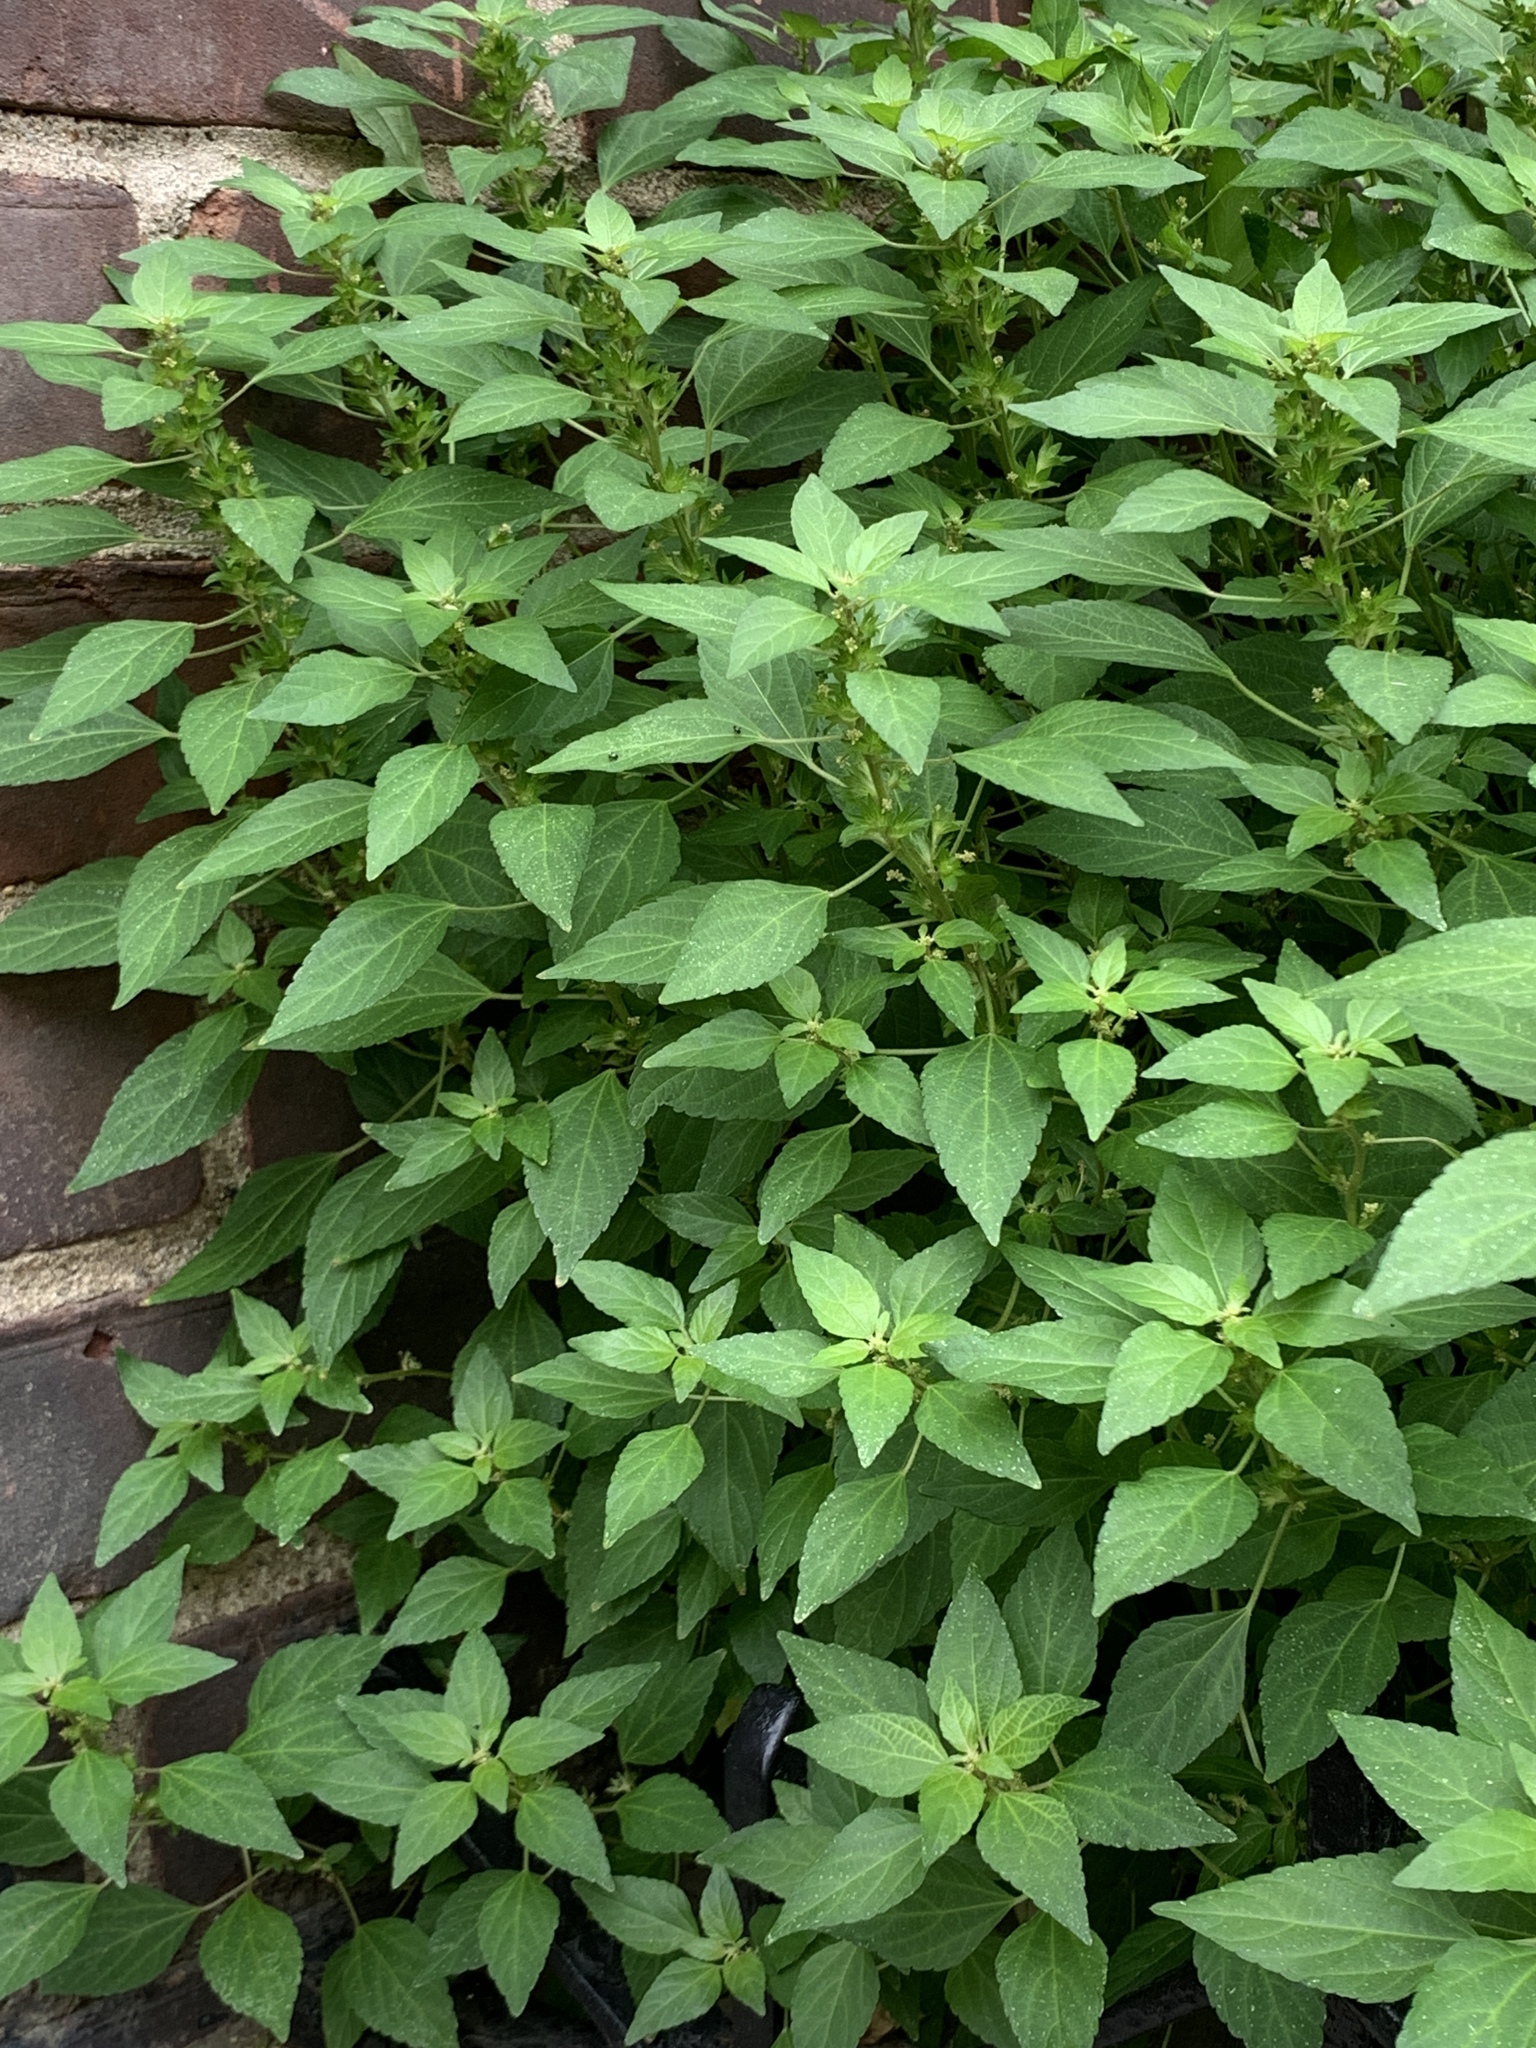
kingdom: Plantae
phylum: Tracheophyta
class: Magnoliopsida
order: Malpighiales
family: Euphorbiaceae
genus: Acalypha
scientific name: Acalypha rhomboidea
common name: Rhombic copperleaf
